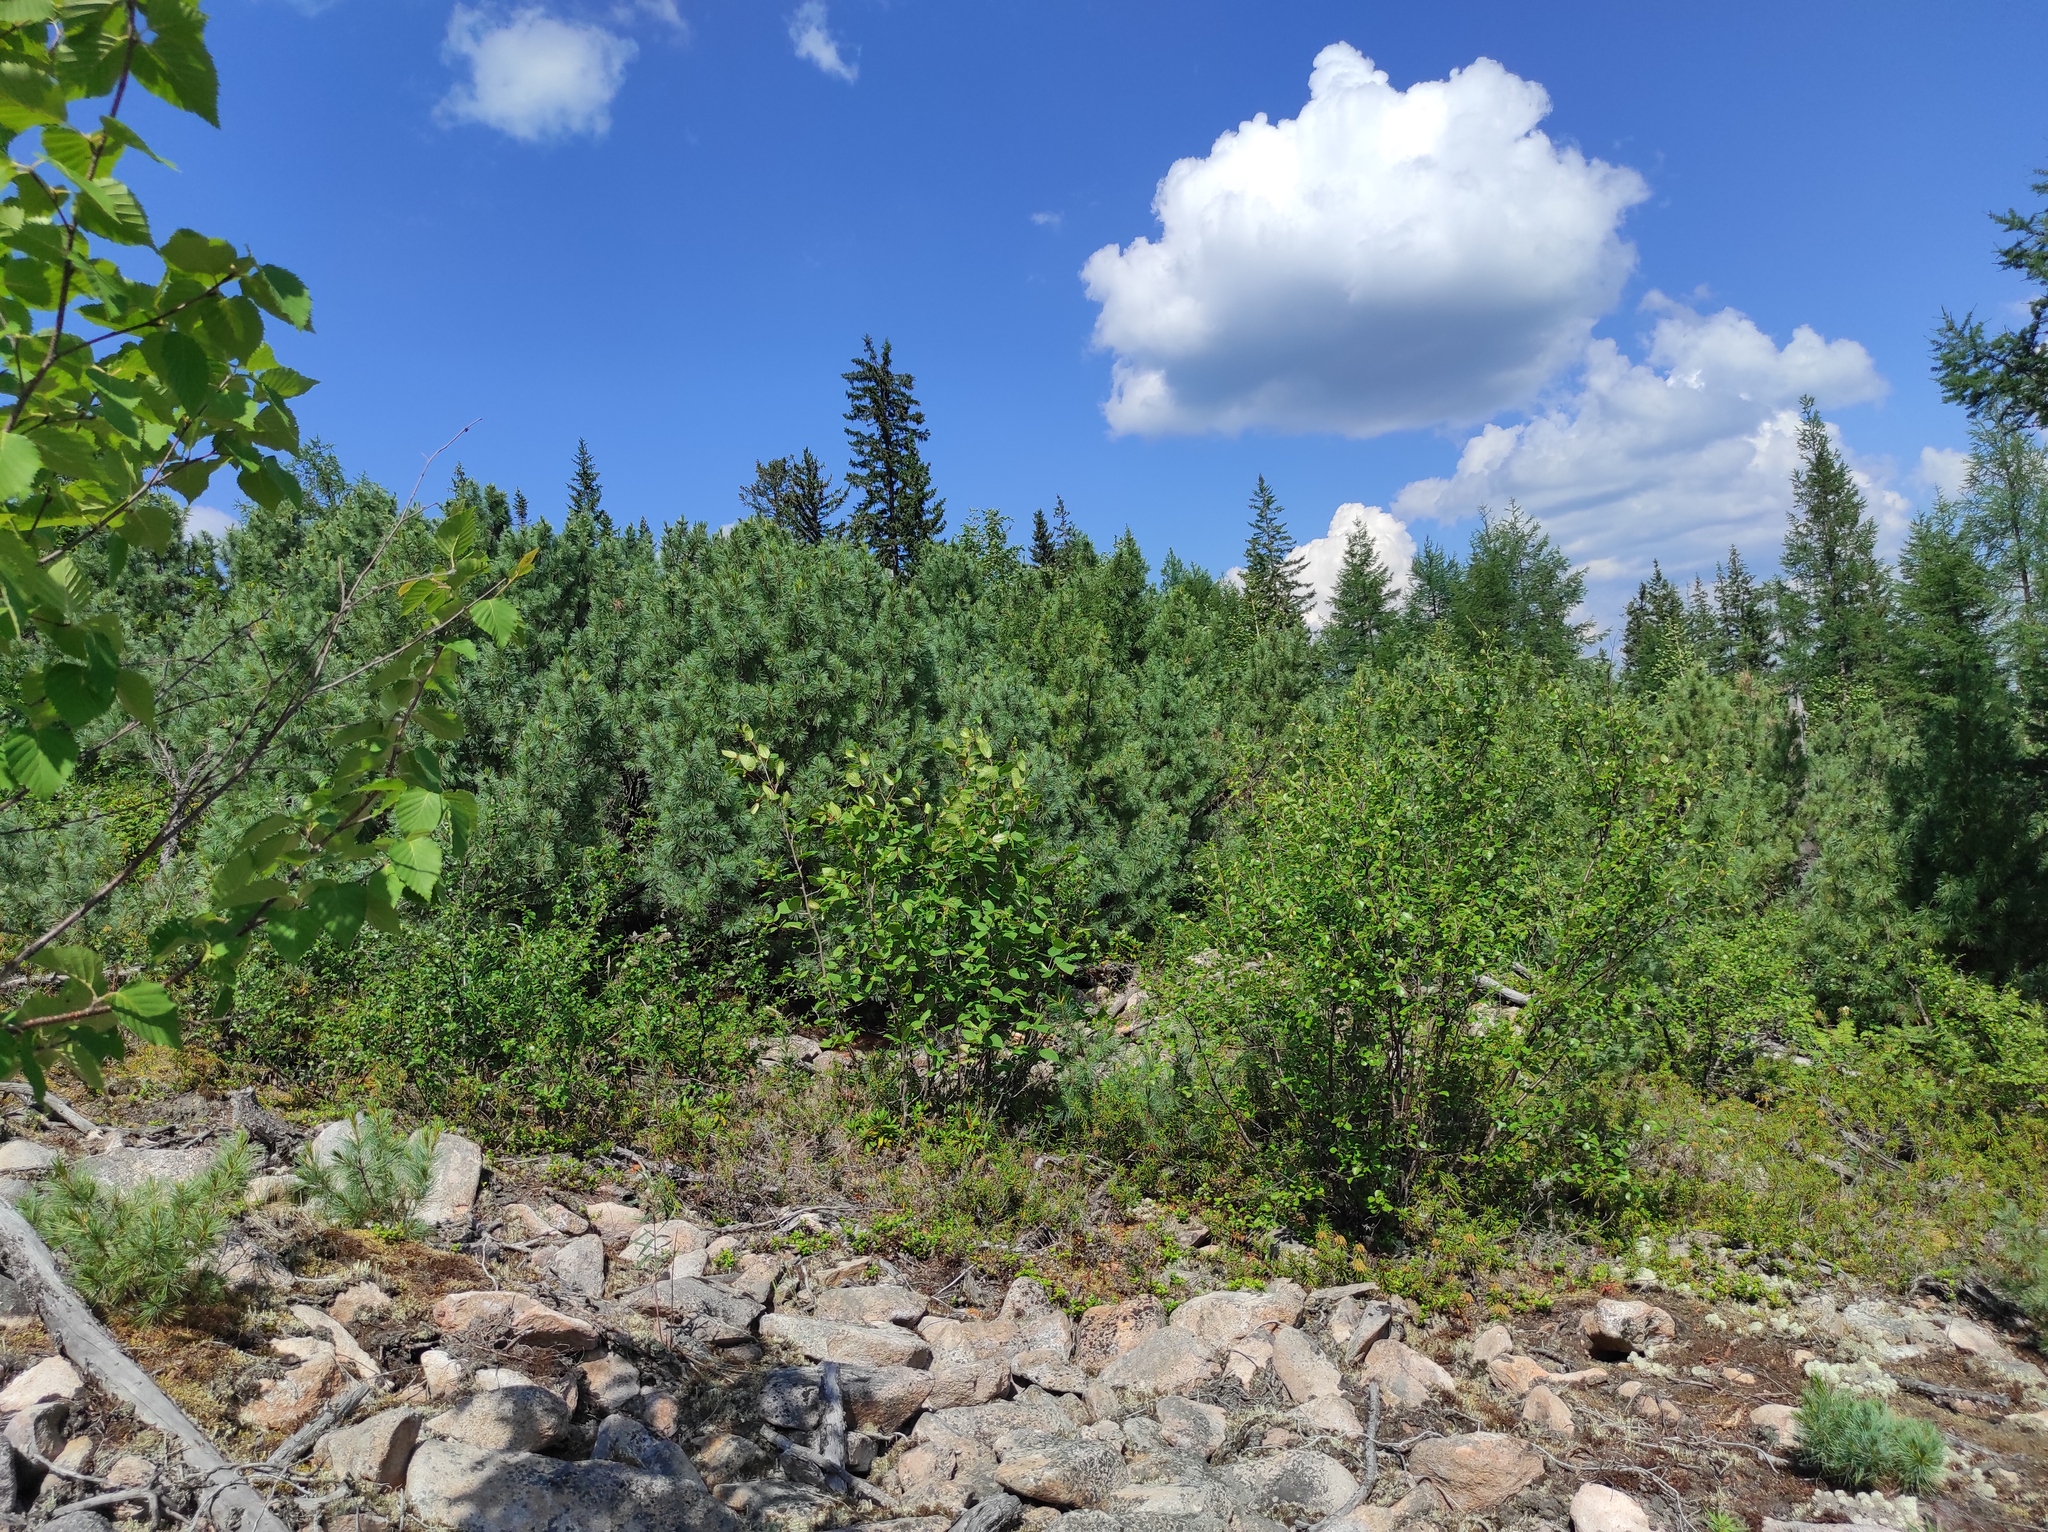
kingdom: Plantae
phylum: Tracheophyta
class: Pinopsida
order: Pinales
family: Pinaceae
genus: Larix
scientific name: Larix gmelinii
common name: Dahurian larch
